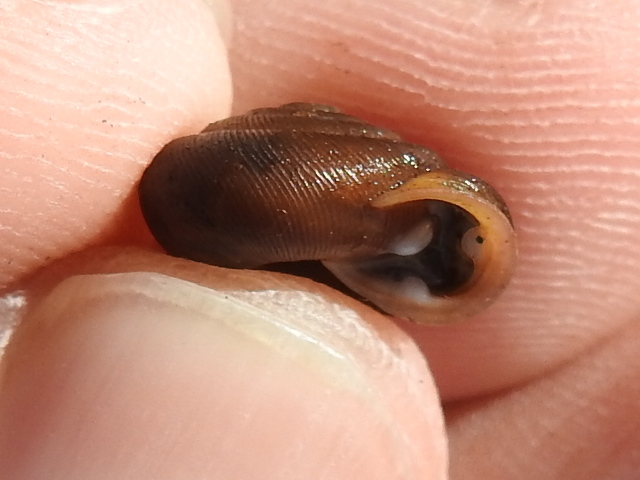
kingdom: Animalia
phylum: Mollusca
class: Gastropoda
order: Stylommatophora
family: Polygyridae
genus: Triodopsis
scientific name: Triodopsis hopetonensis
